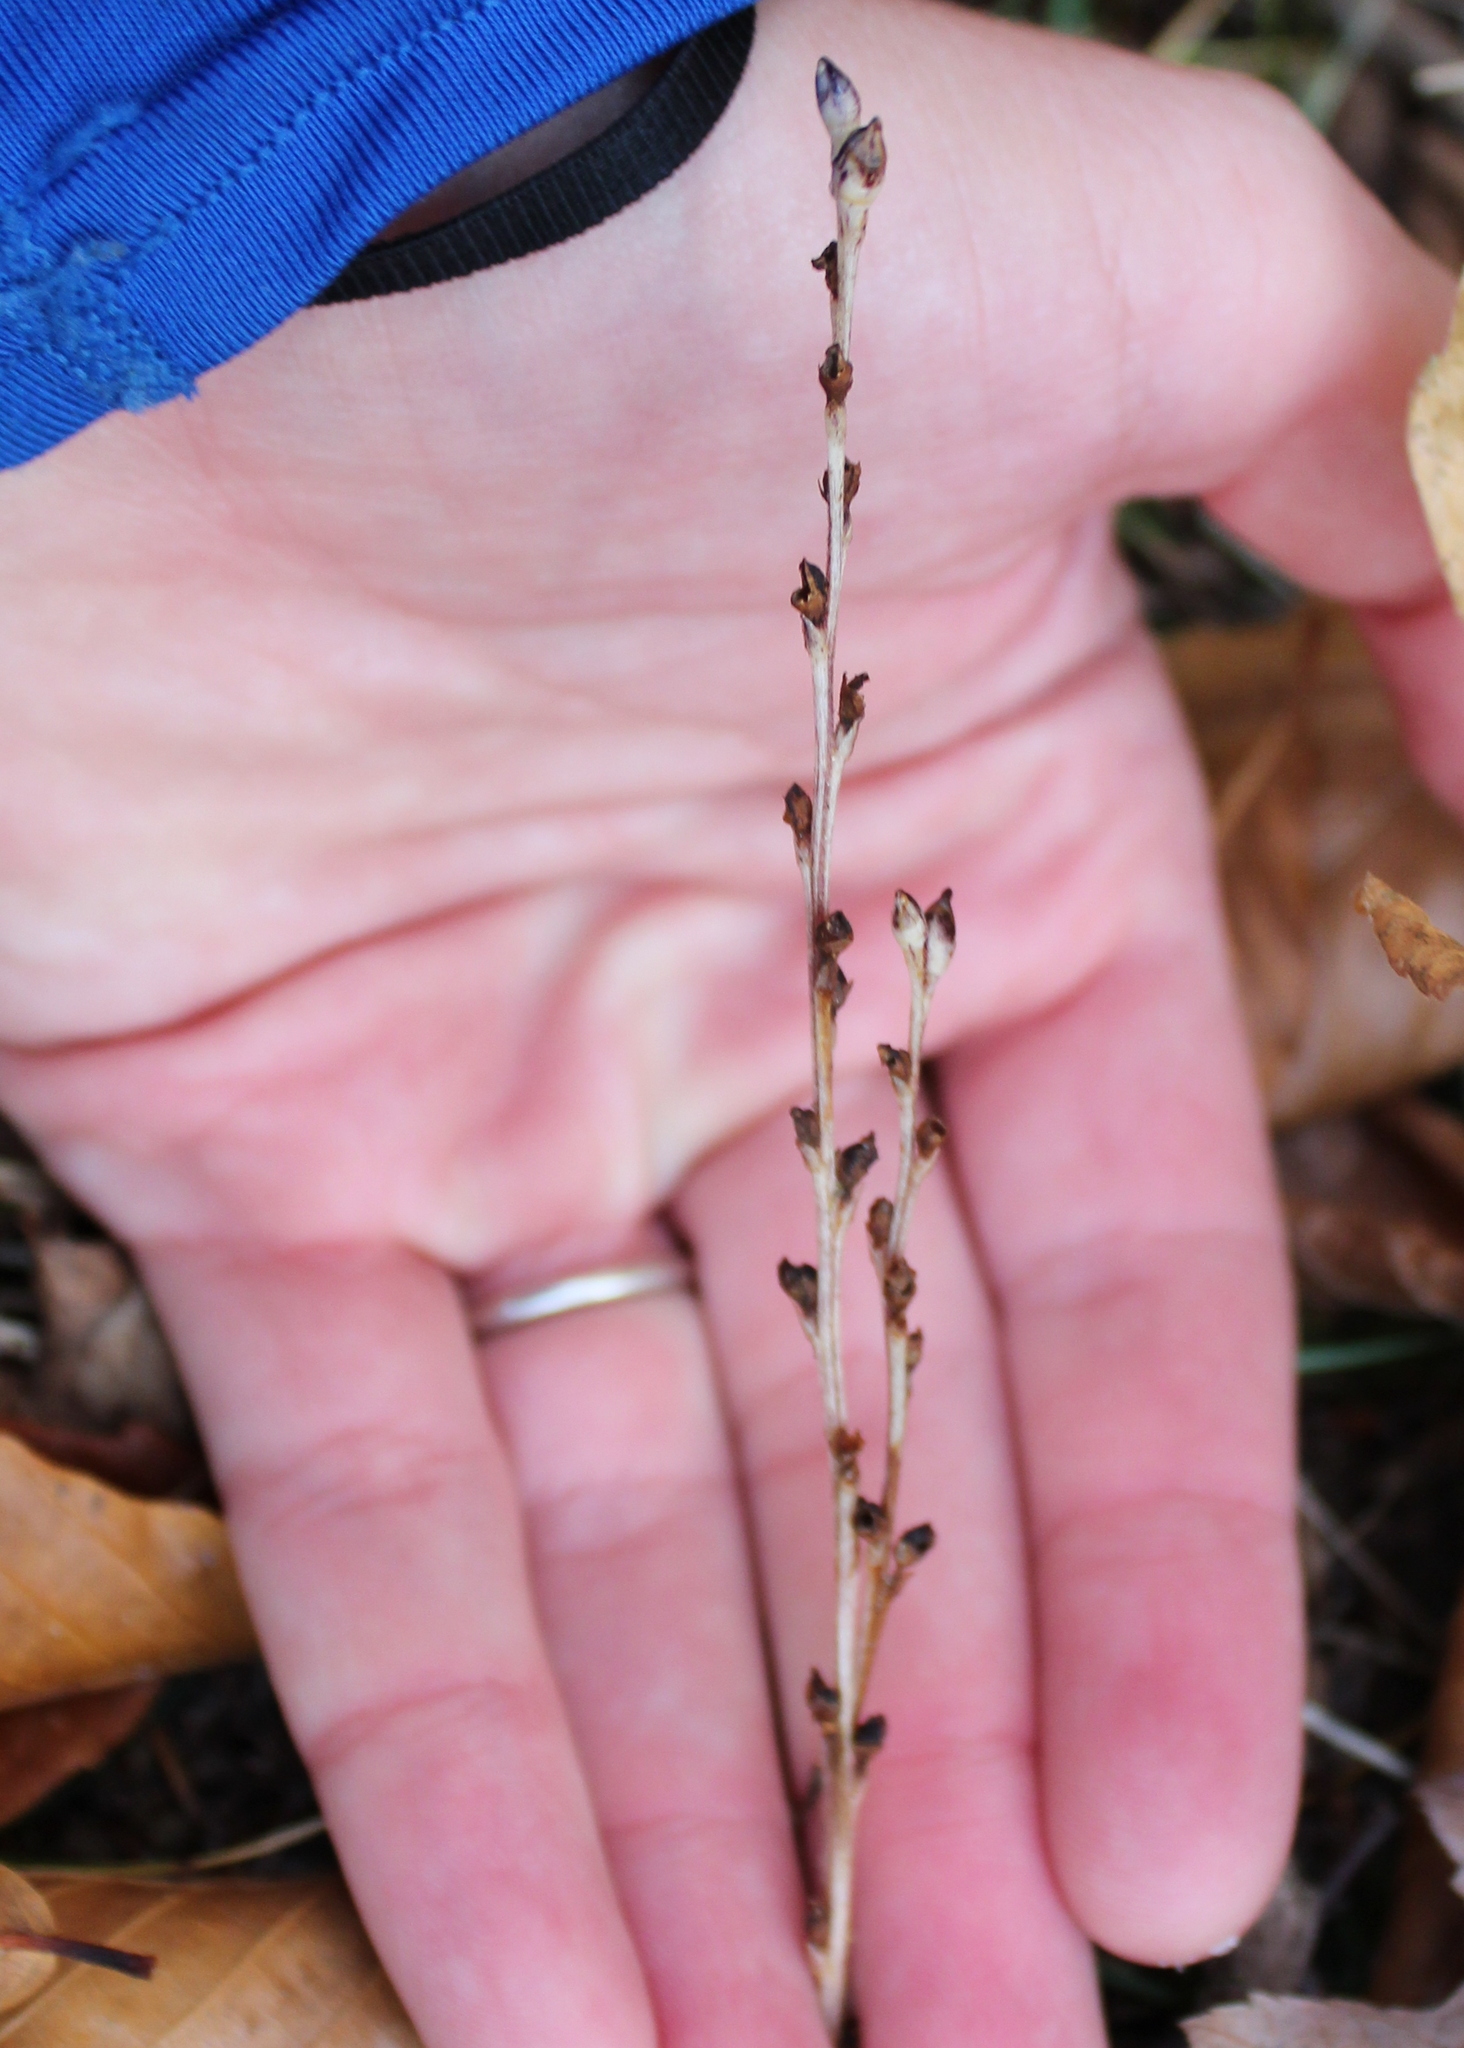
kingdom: Plantae
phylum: Tracheophyta
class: Magnoliopsida
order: Lamiales
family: Orobanchaceae
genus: Epifagus
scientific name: Epifagus virginiana
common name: Beechdrops
